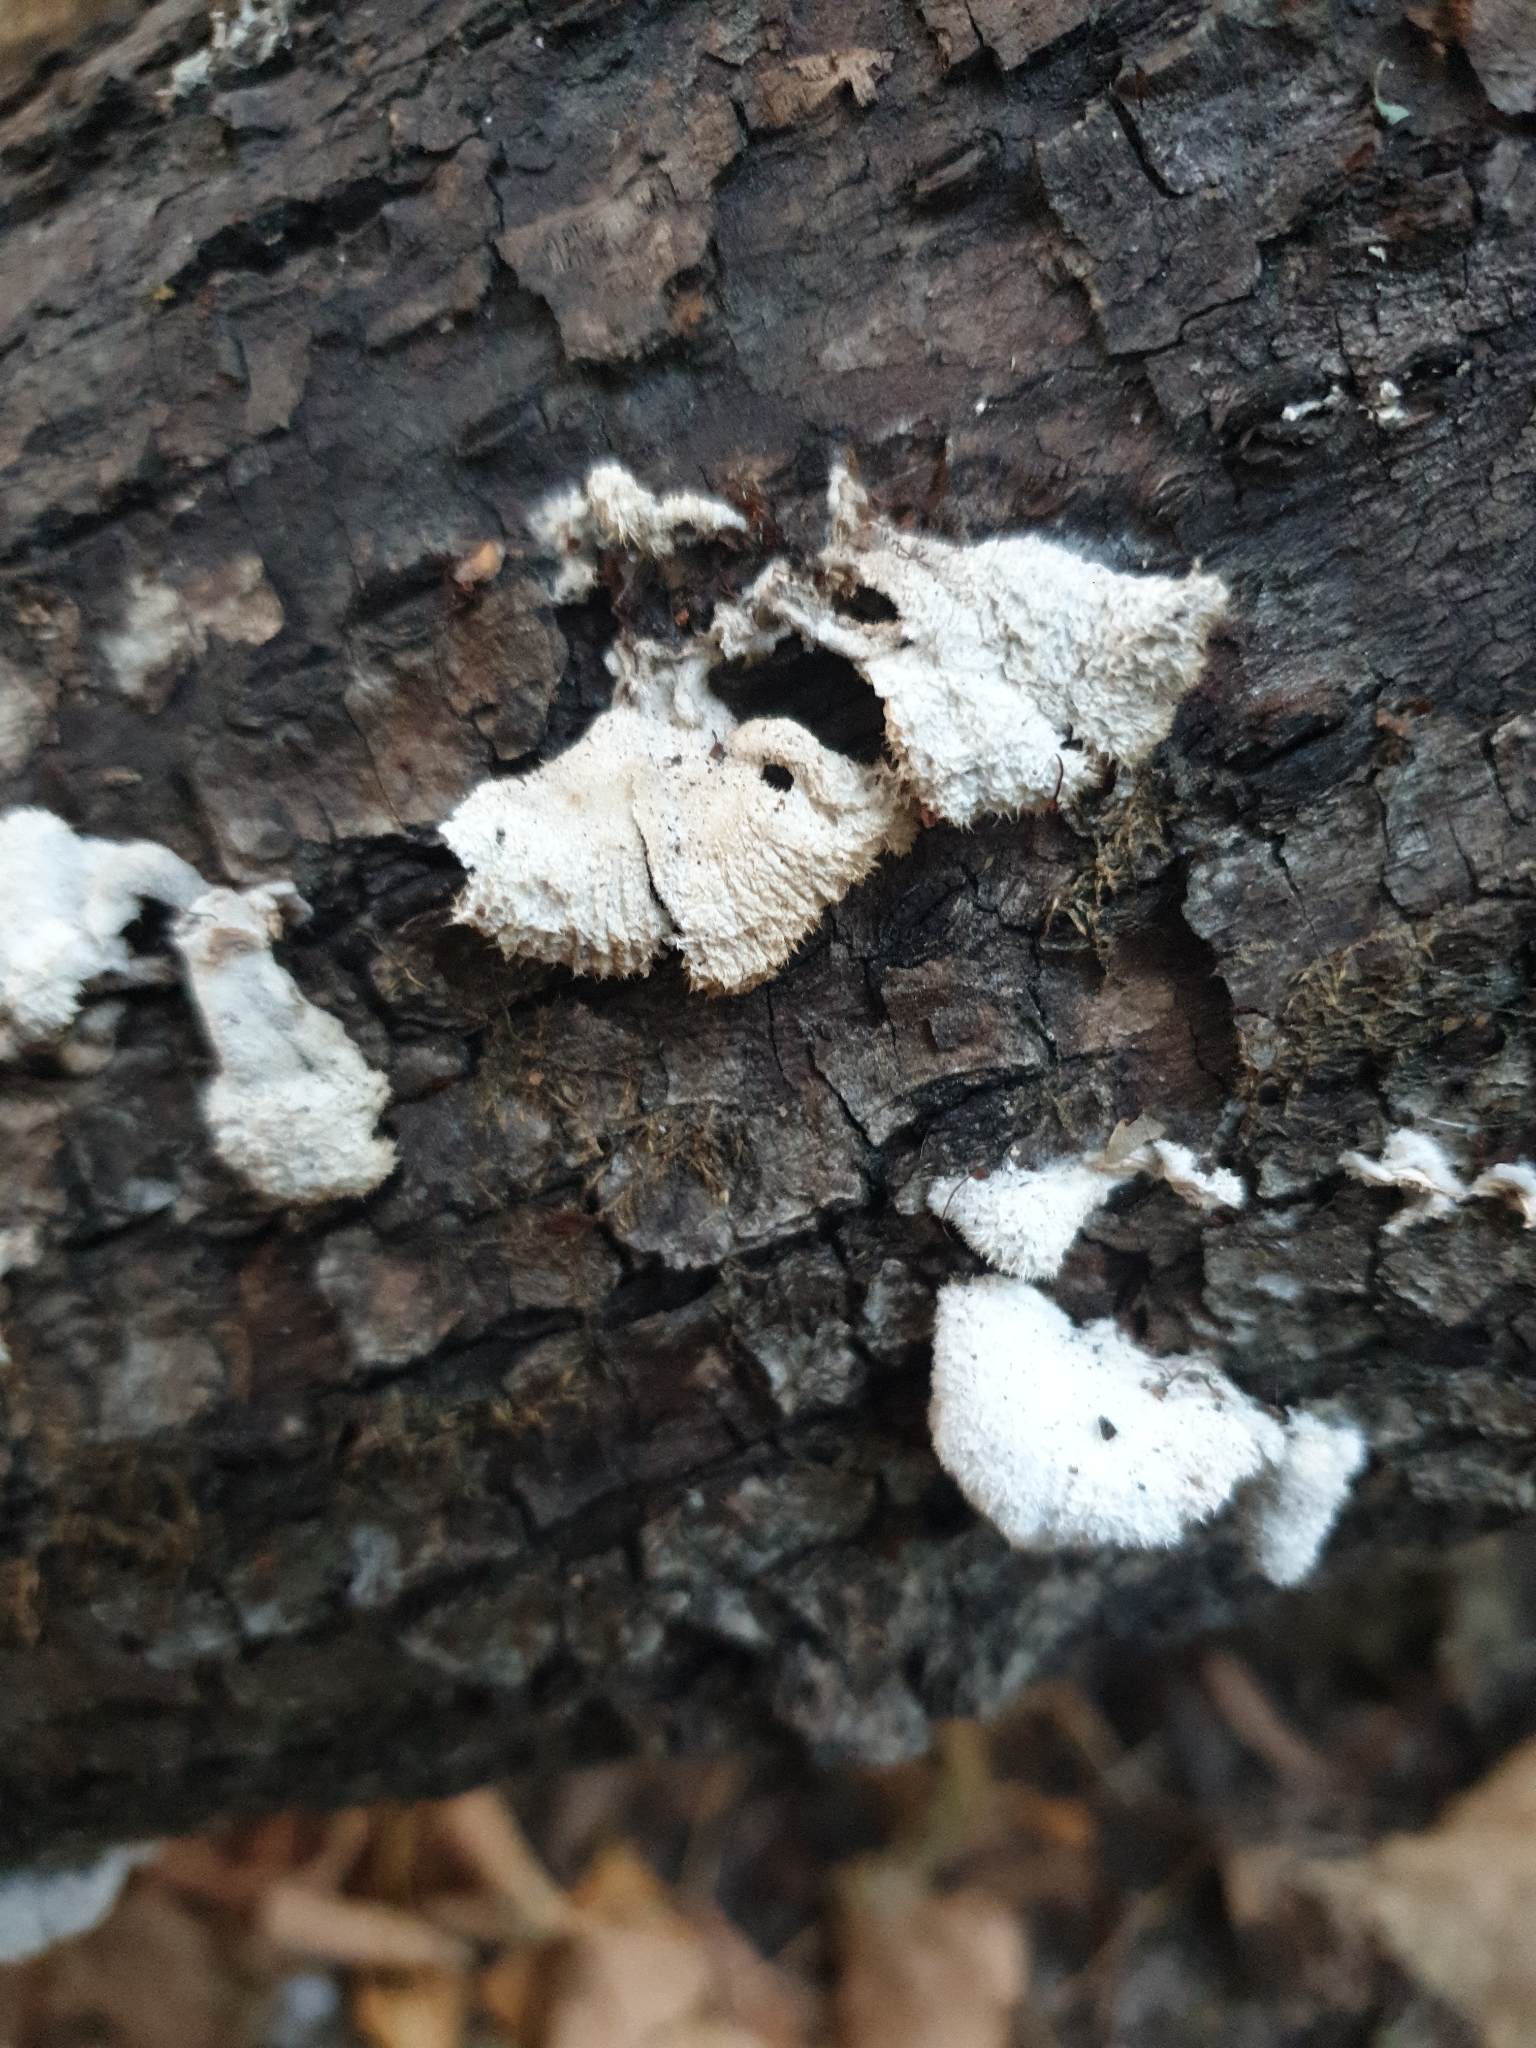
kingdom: Fungi
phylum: Basidiomycota
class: Agaricomycetes
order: Agaricales
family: Schizophyllaceae
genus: Schizophyllum
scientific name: Schizophyllum commune
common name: Common porecrust
